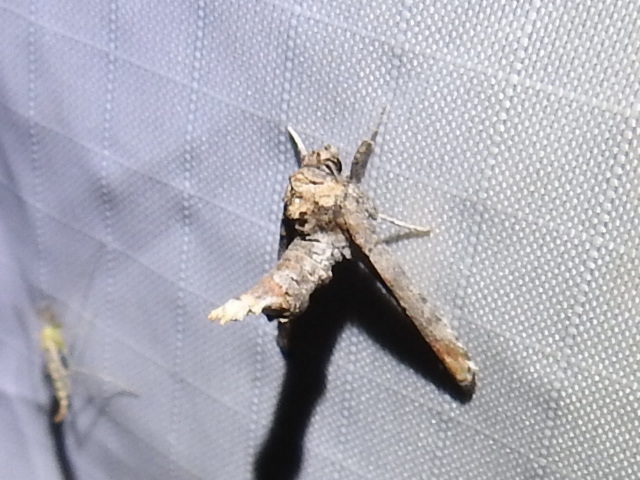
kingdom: Animalia
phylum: Arthropoda
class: Insecta
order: Lepidoptera
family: Euteliidae
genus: Marathyssa
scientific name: Marathyssa inficita
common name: Dark marathyssa moth
